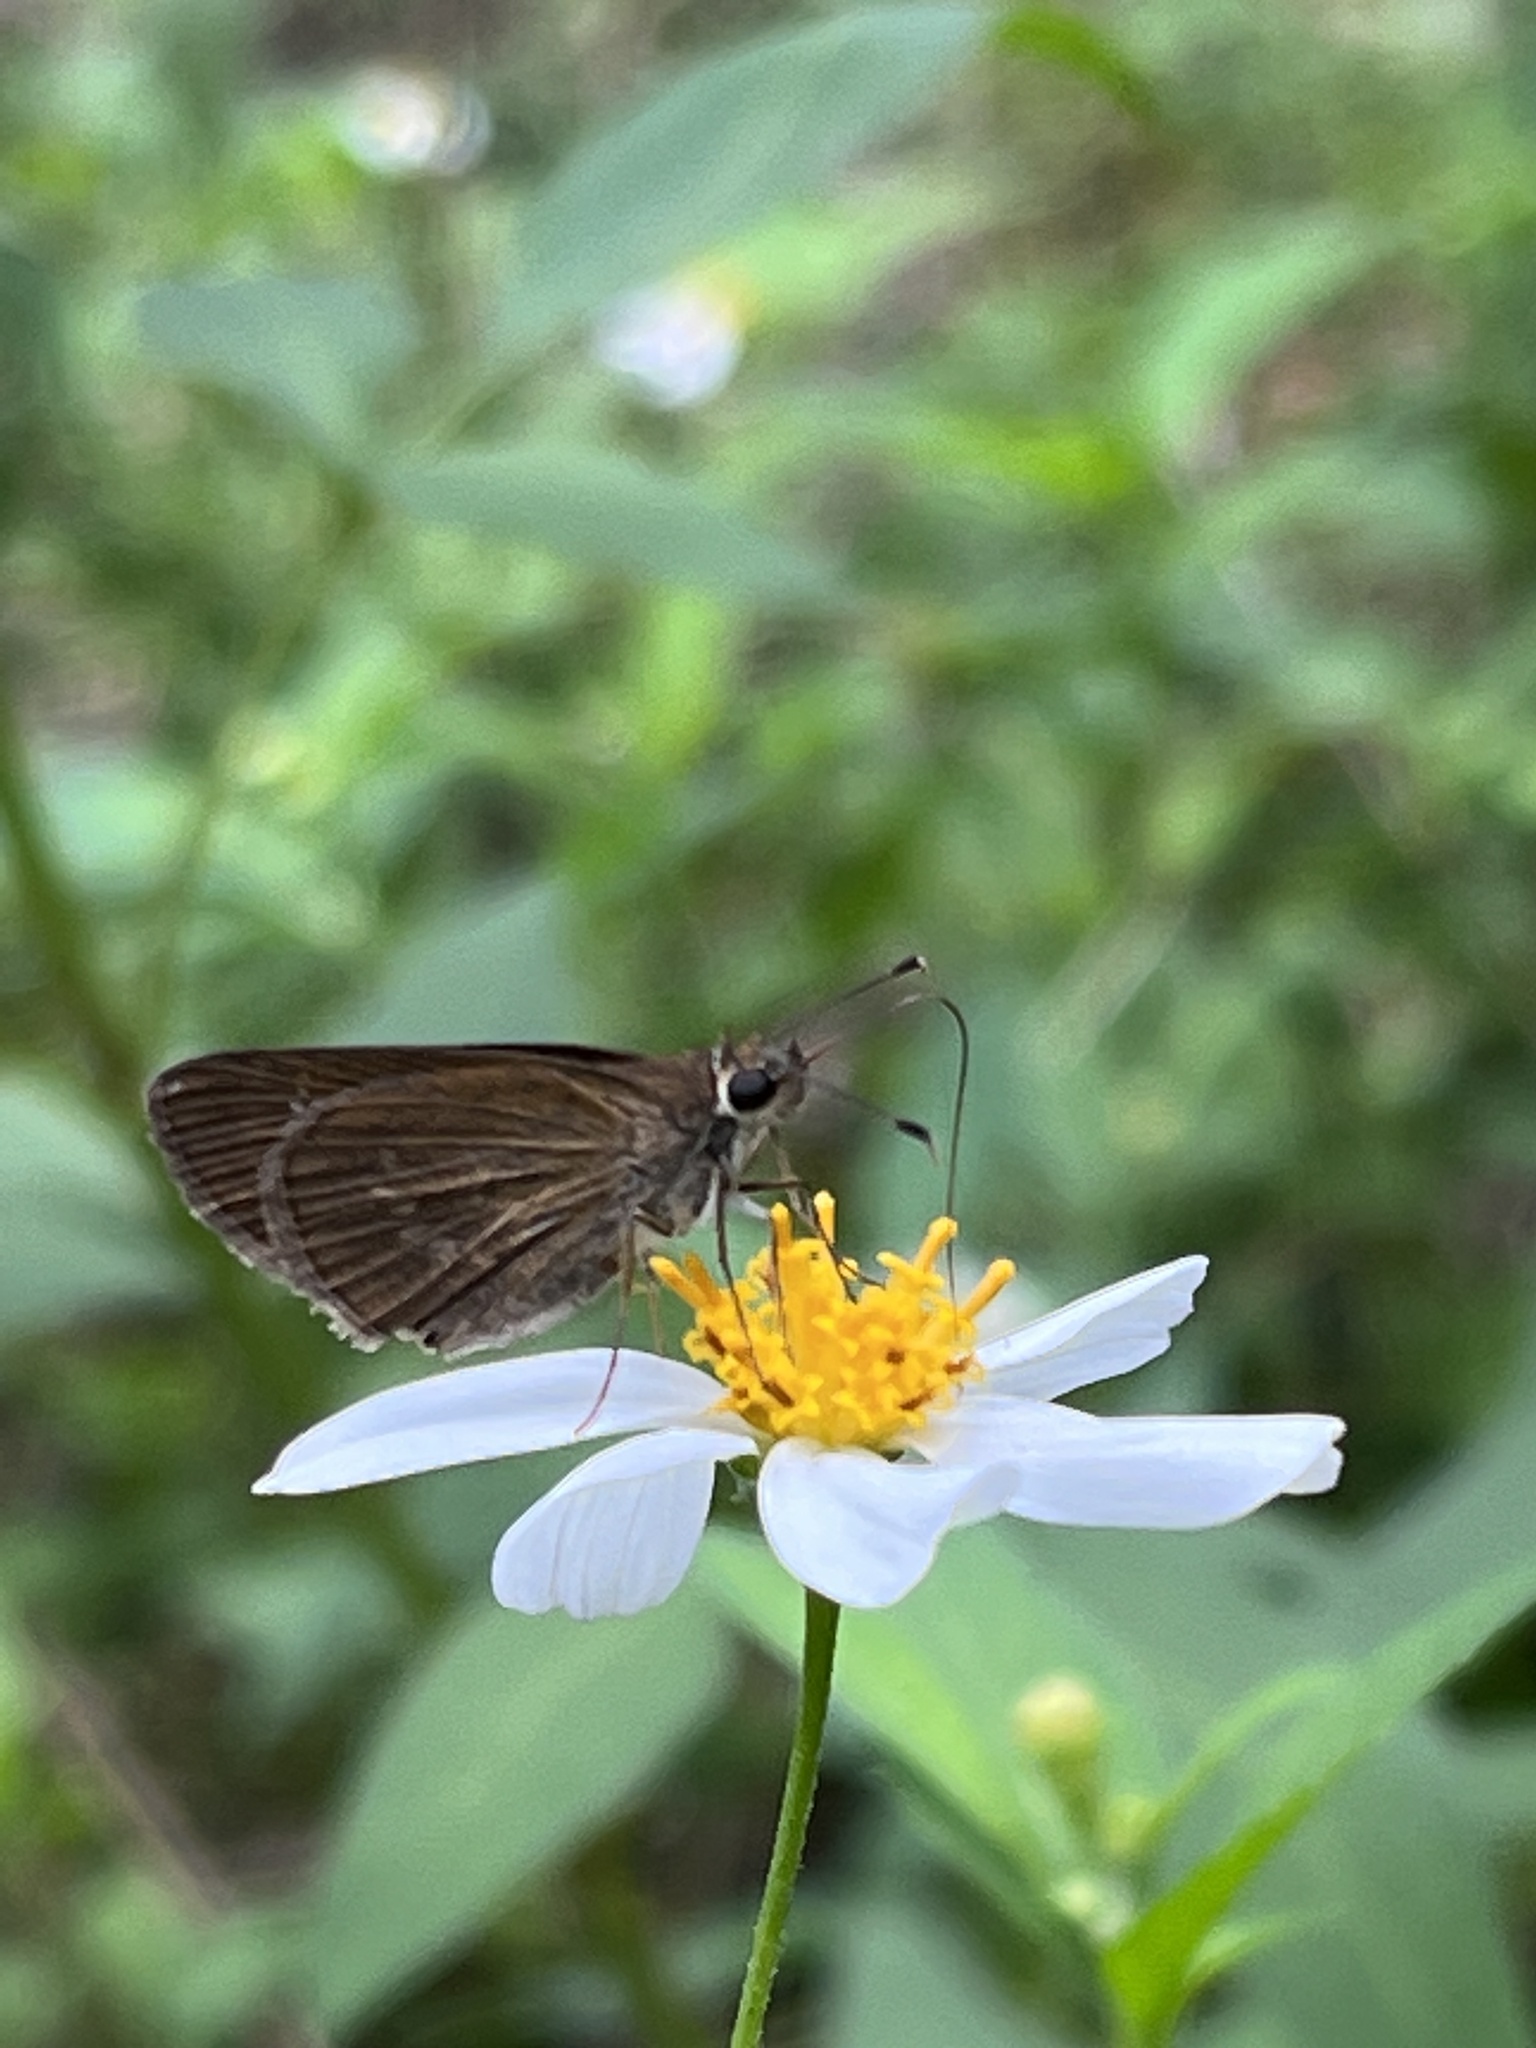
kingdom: Animalia
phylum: Arthropoda
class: Insecta
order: Lepidoptera
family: Hesperiidae
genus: Cymaenes
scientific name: Cymaenes tripunctus
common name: Dingy dotted skipper
